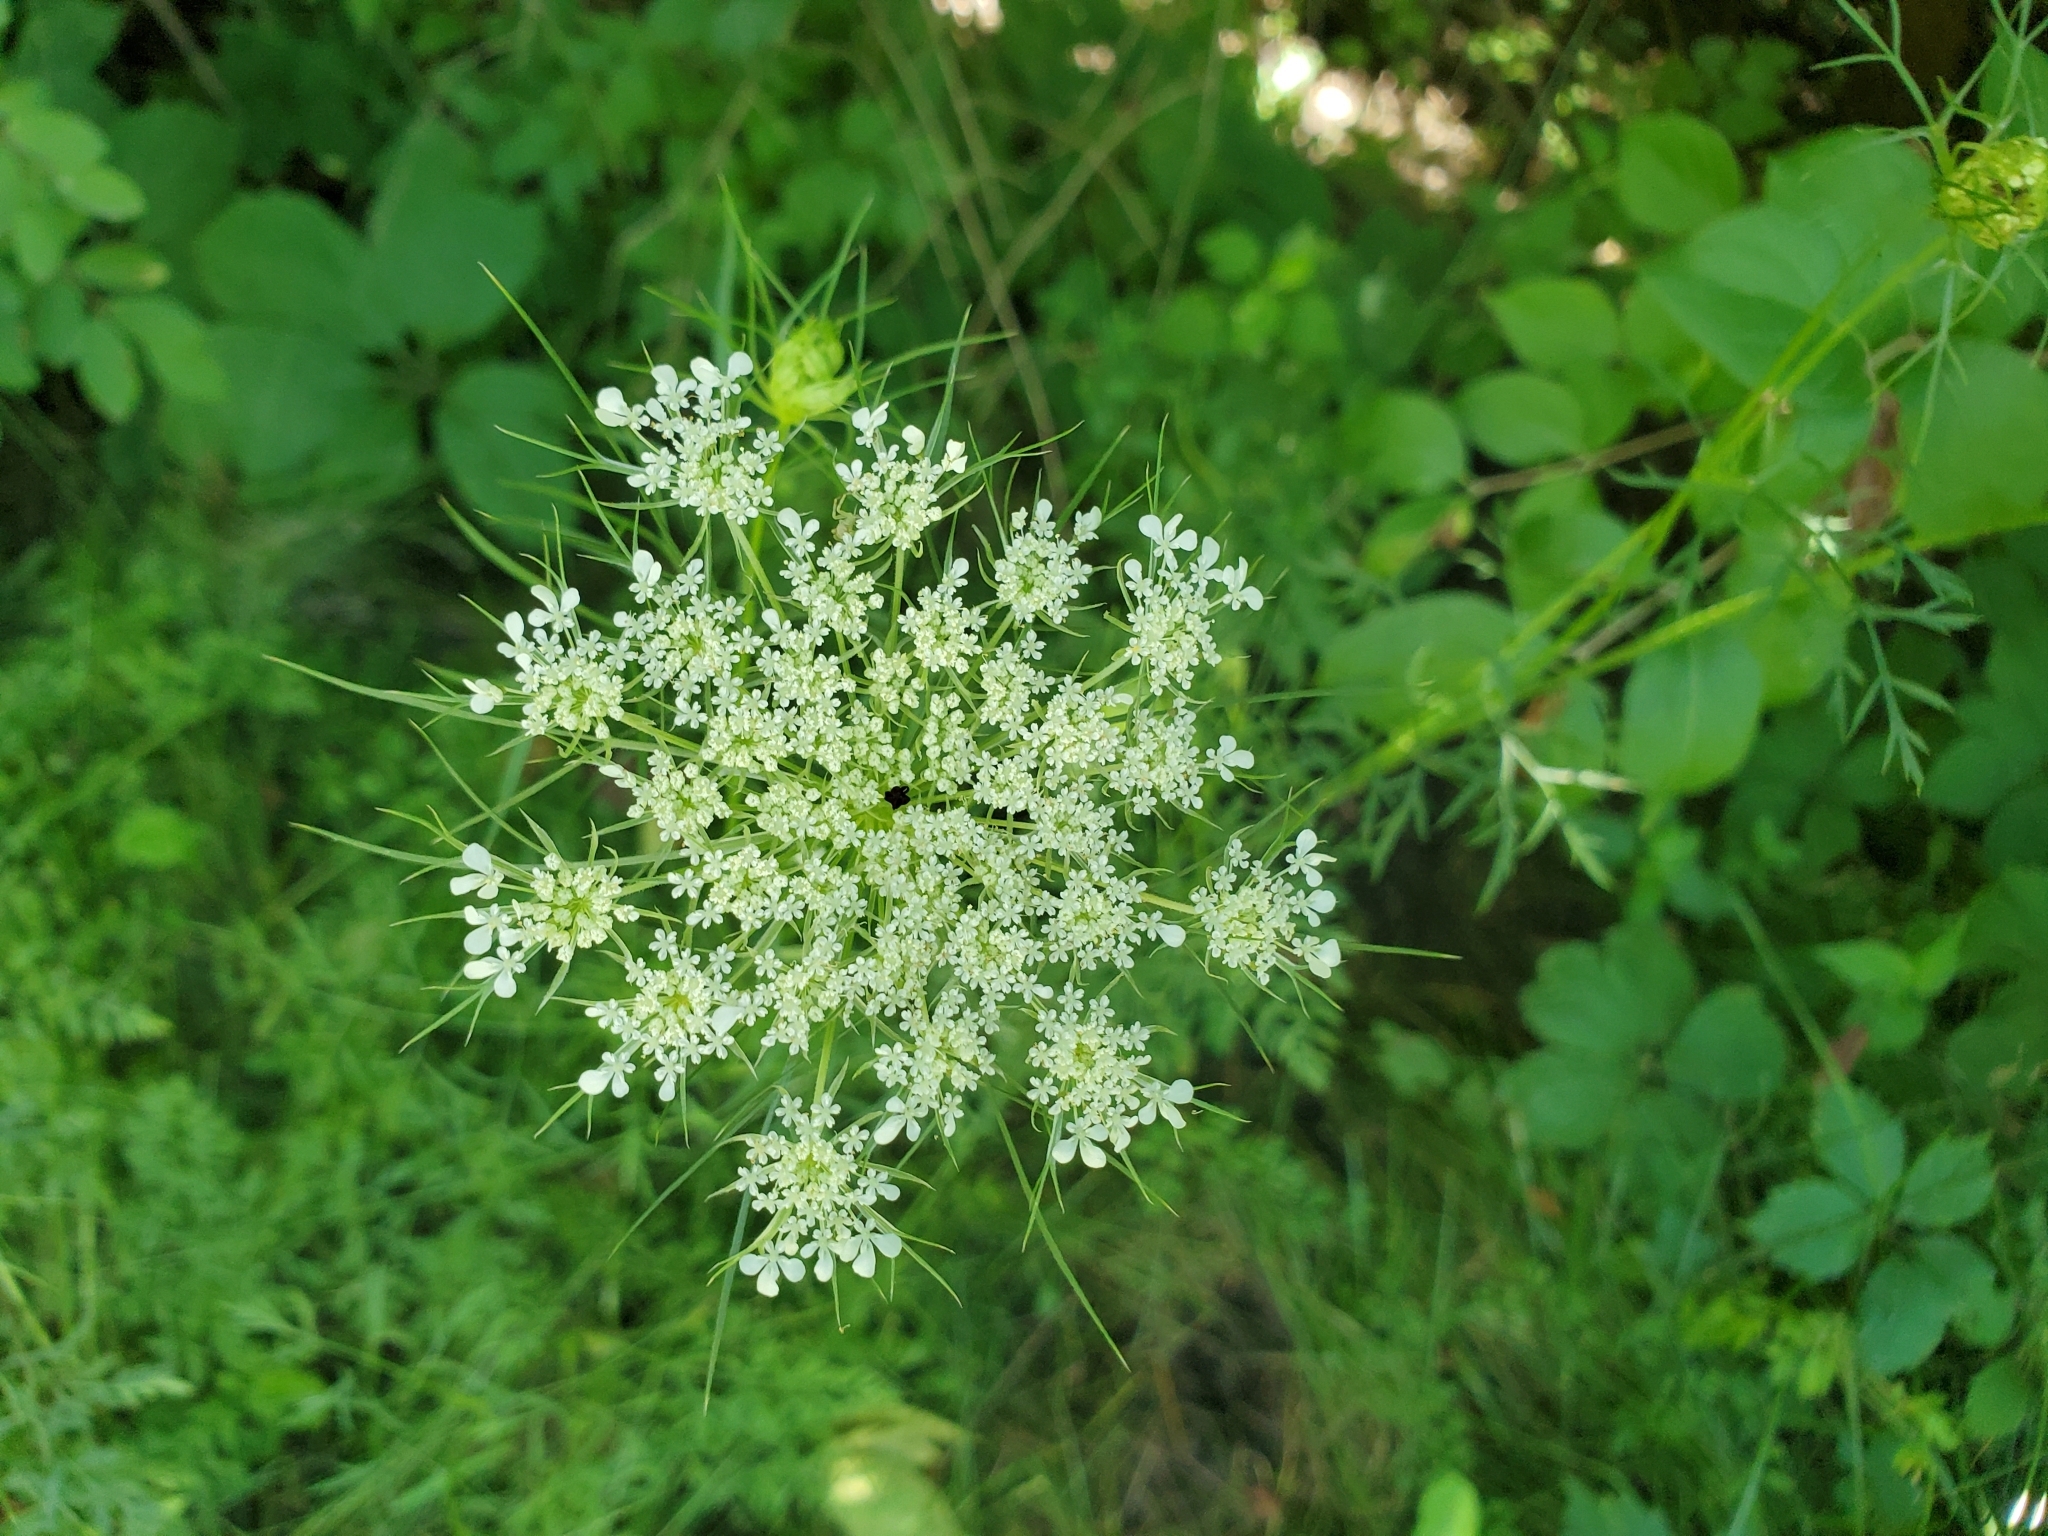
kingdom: Plantae
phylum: Tracheophyta
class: Magnoliopsida
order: Apiales
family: Apiaceae
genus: Daucus
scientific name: Daucus carota
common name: Wild carrot
